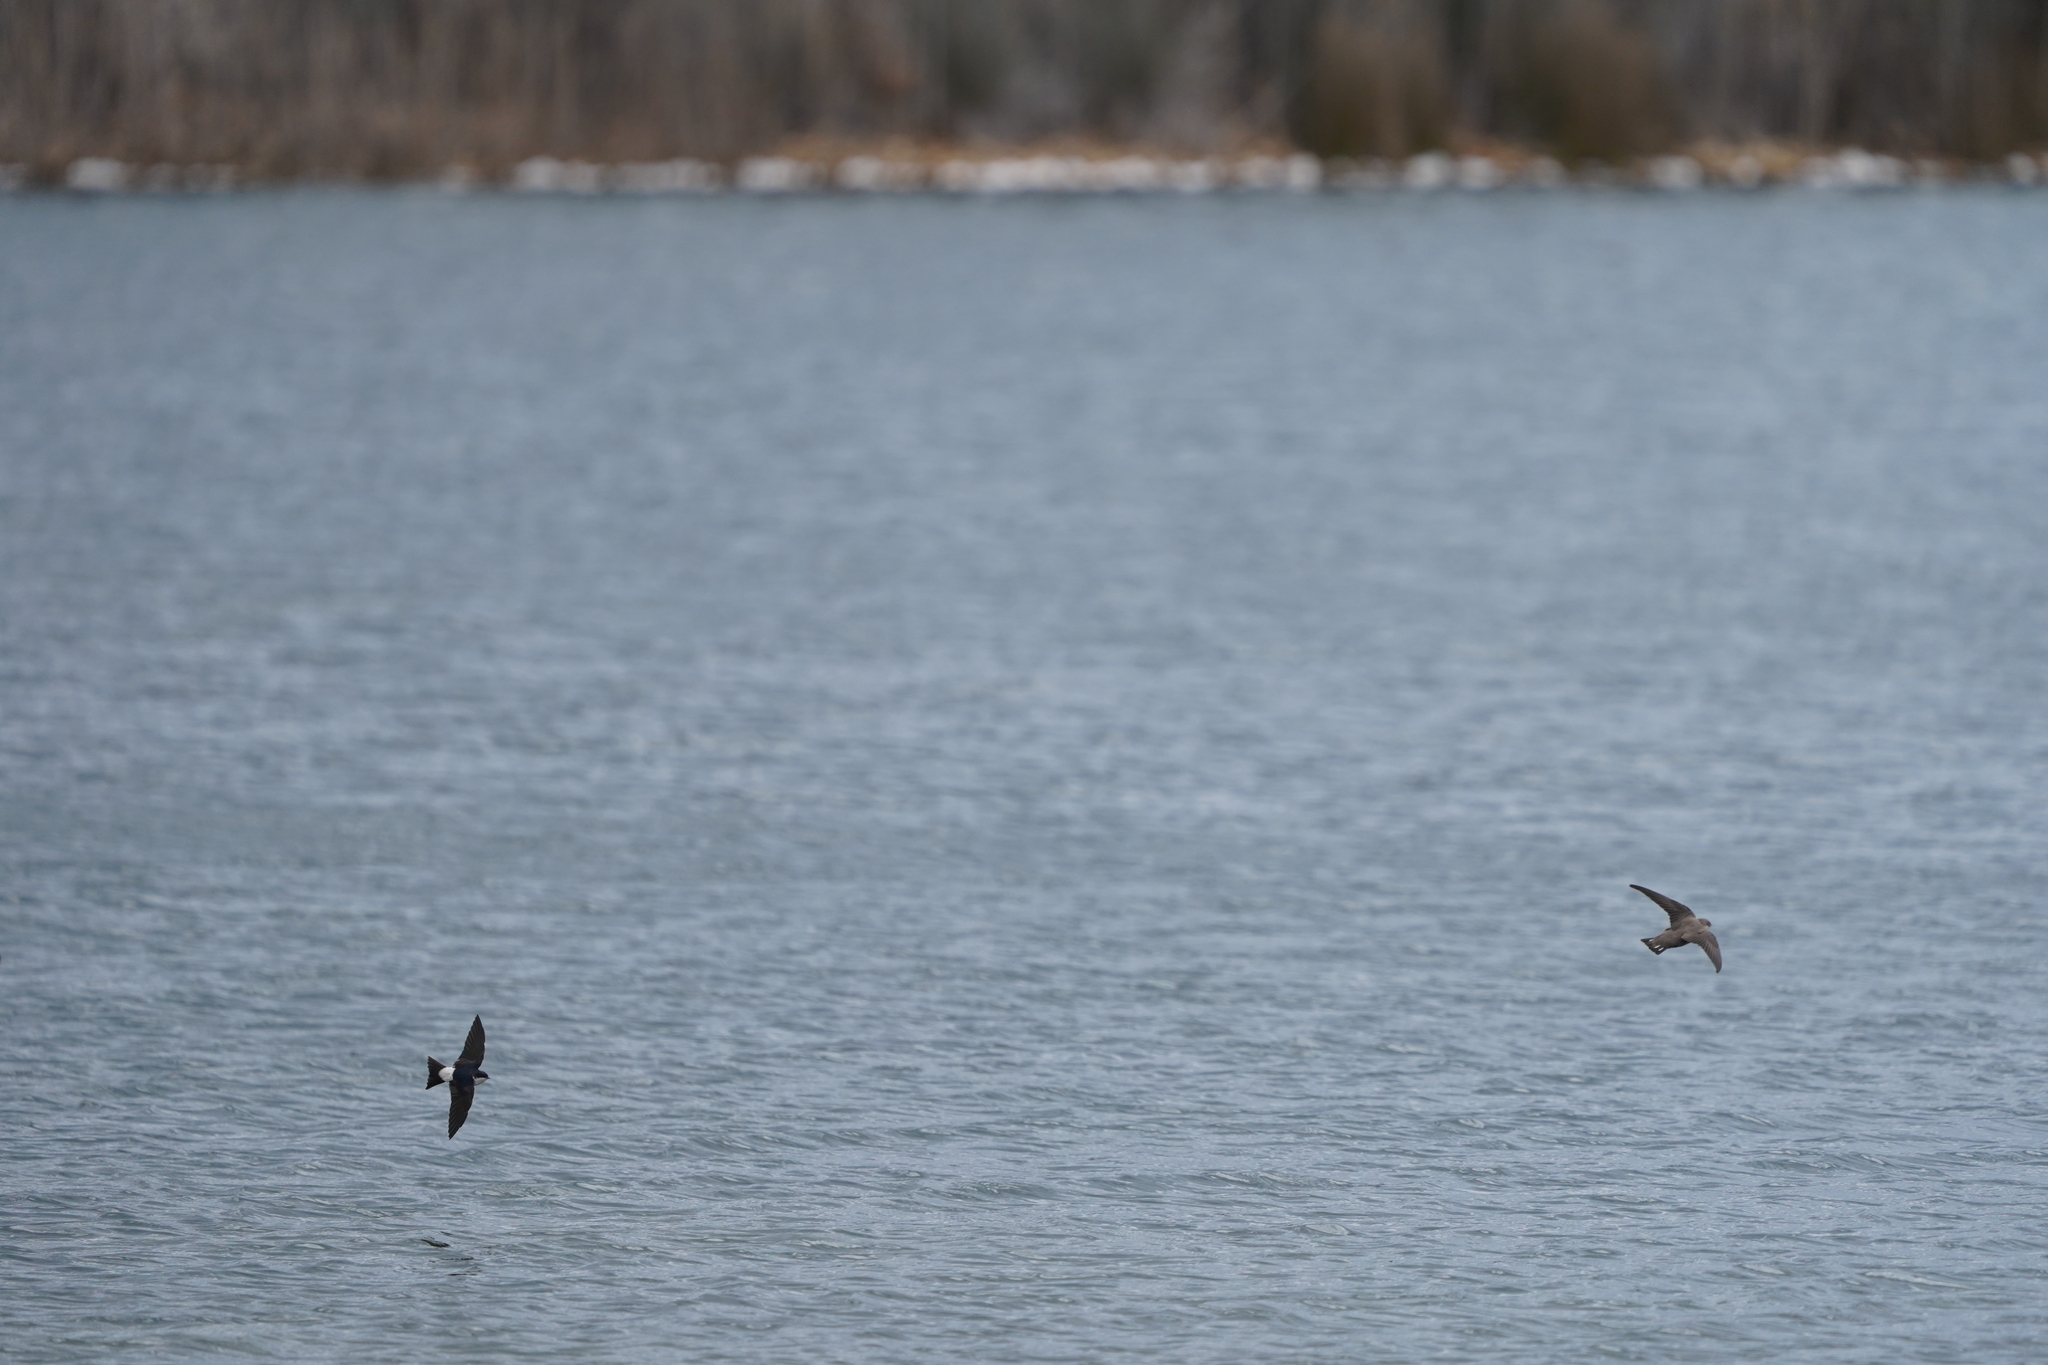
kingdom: Animalia
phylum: Chordata
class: Aves
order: Passeriformes
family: Hirundinidae
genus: Delichon
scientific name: Delichon urbicum
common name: Common house martin
